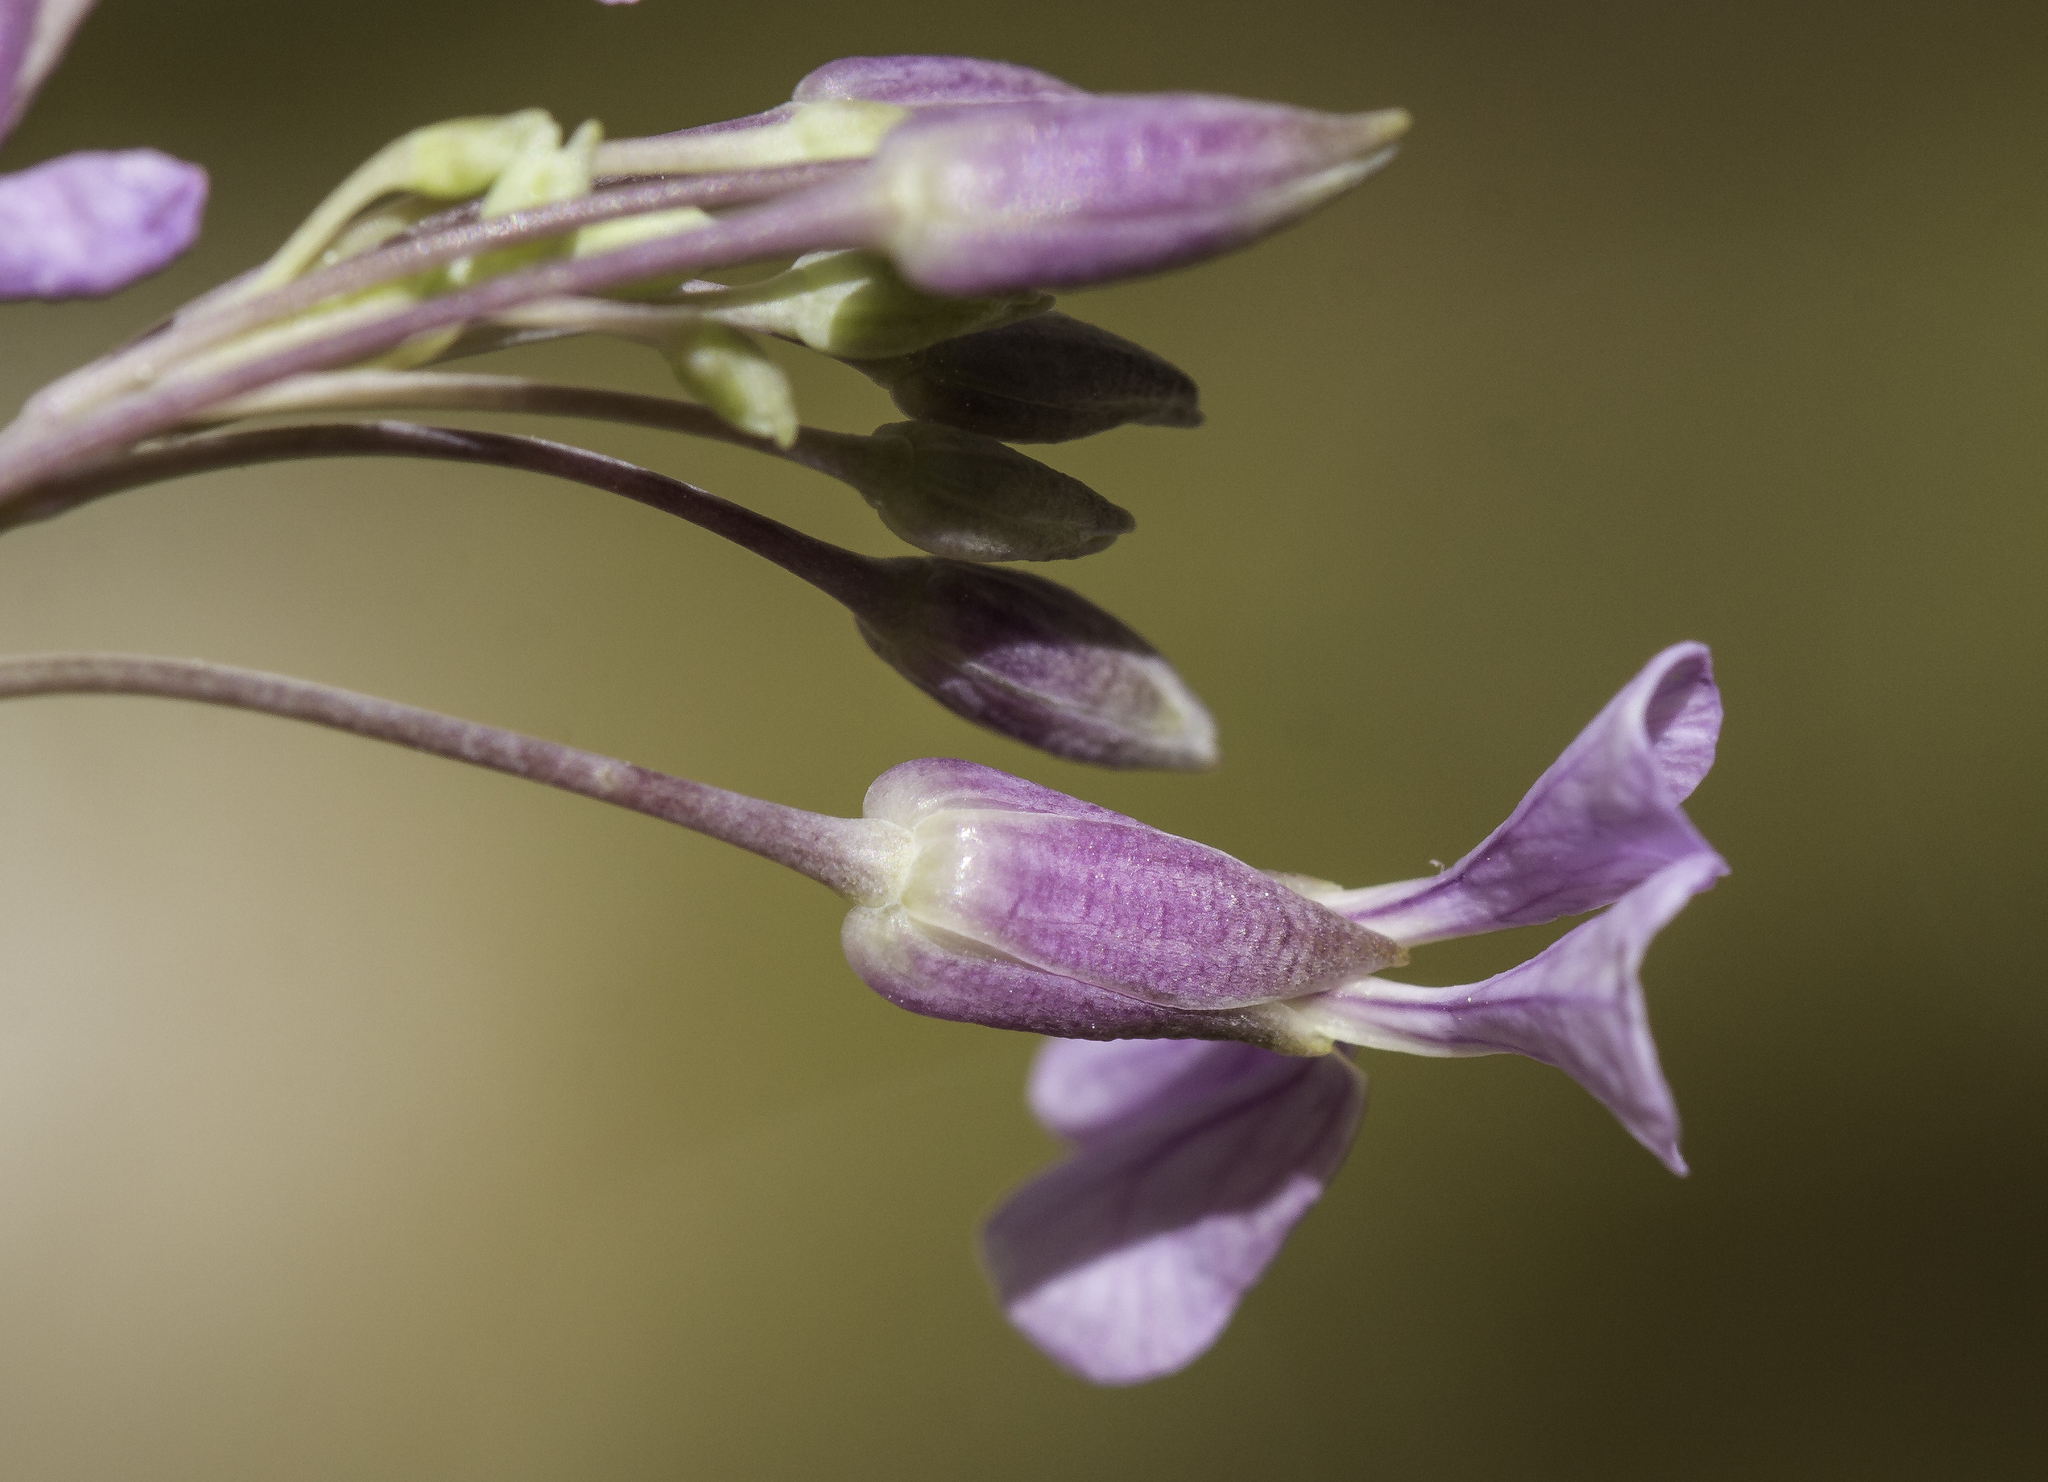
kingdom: Plantae
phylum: Tracheophyta
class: Magnoliopsida
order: Brassicales
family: Brassicaceae
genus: Hesperidanthus
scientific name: Hesperidanthus linearifolius
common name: Slim-leaf plains mustard
